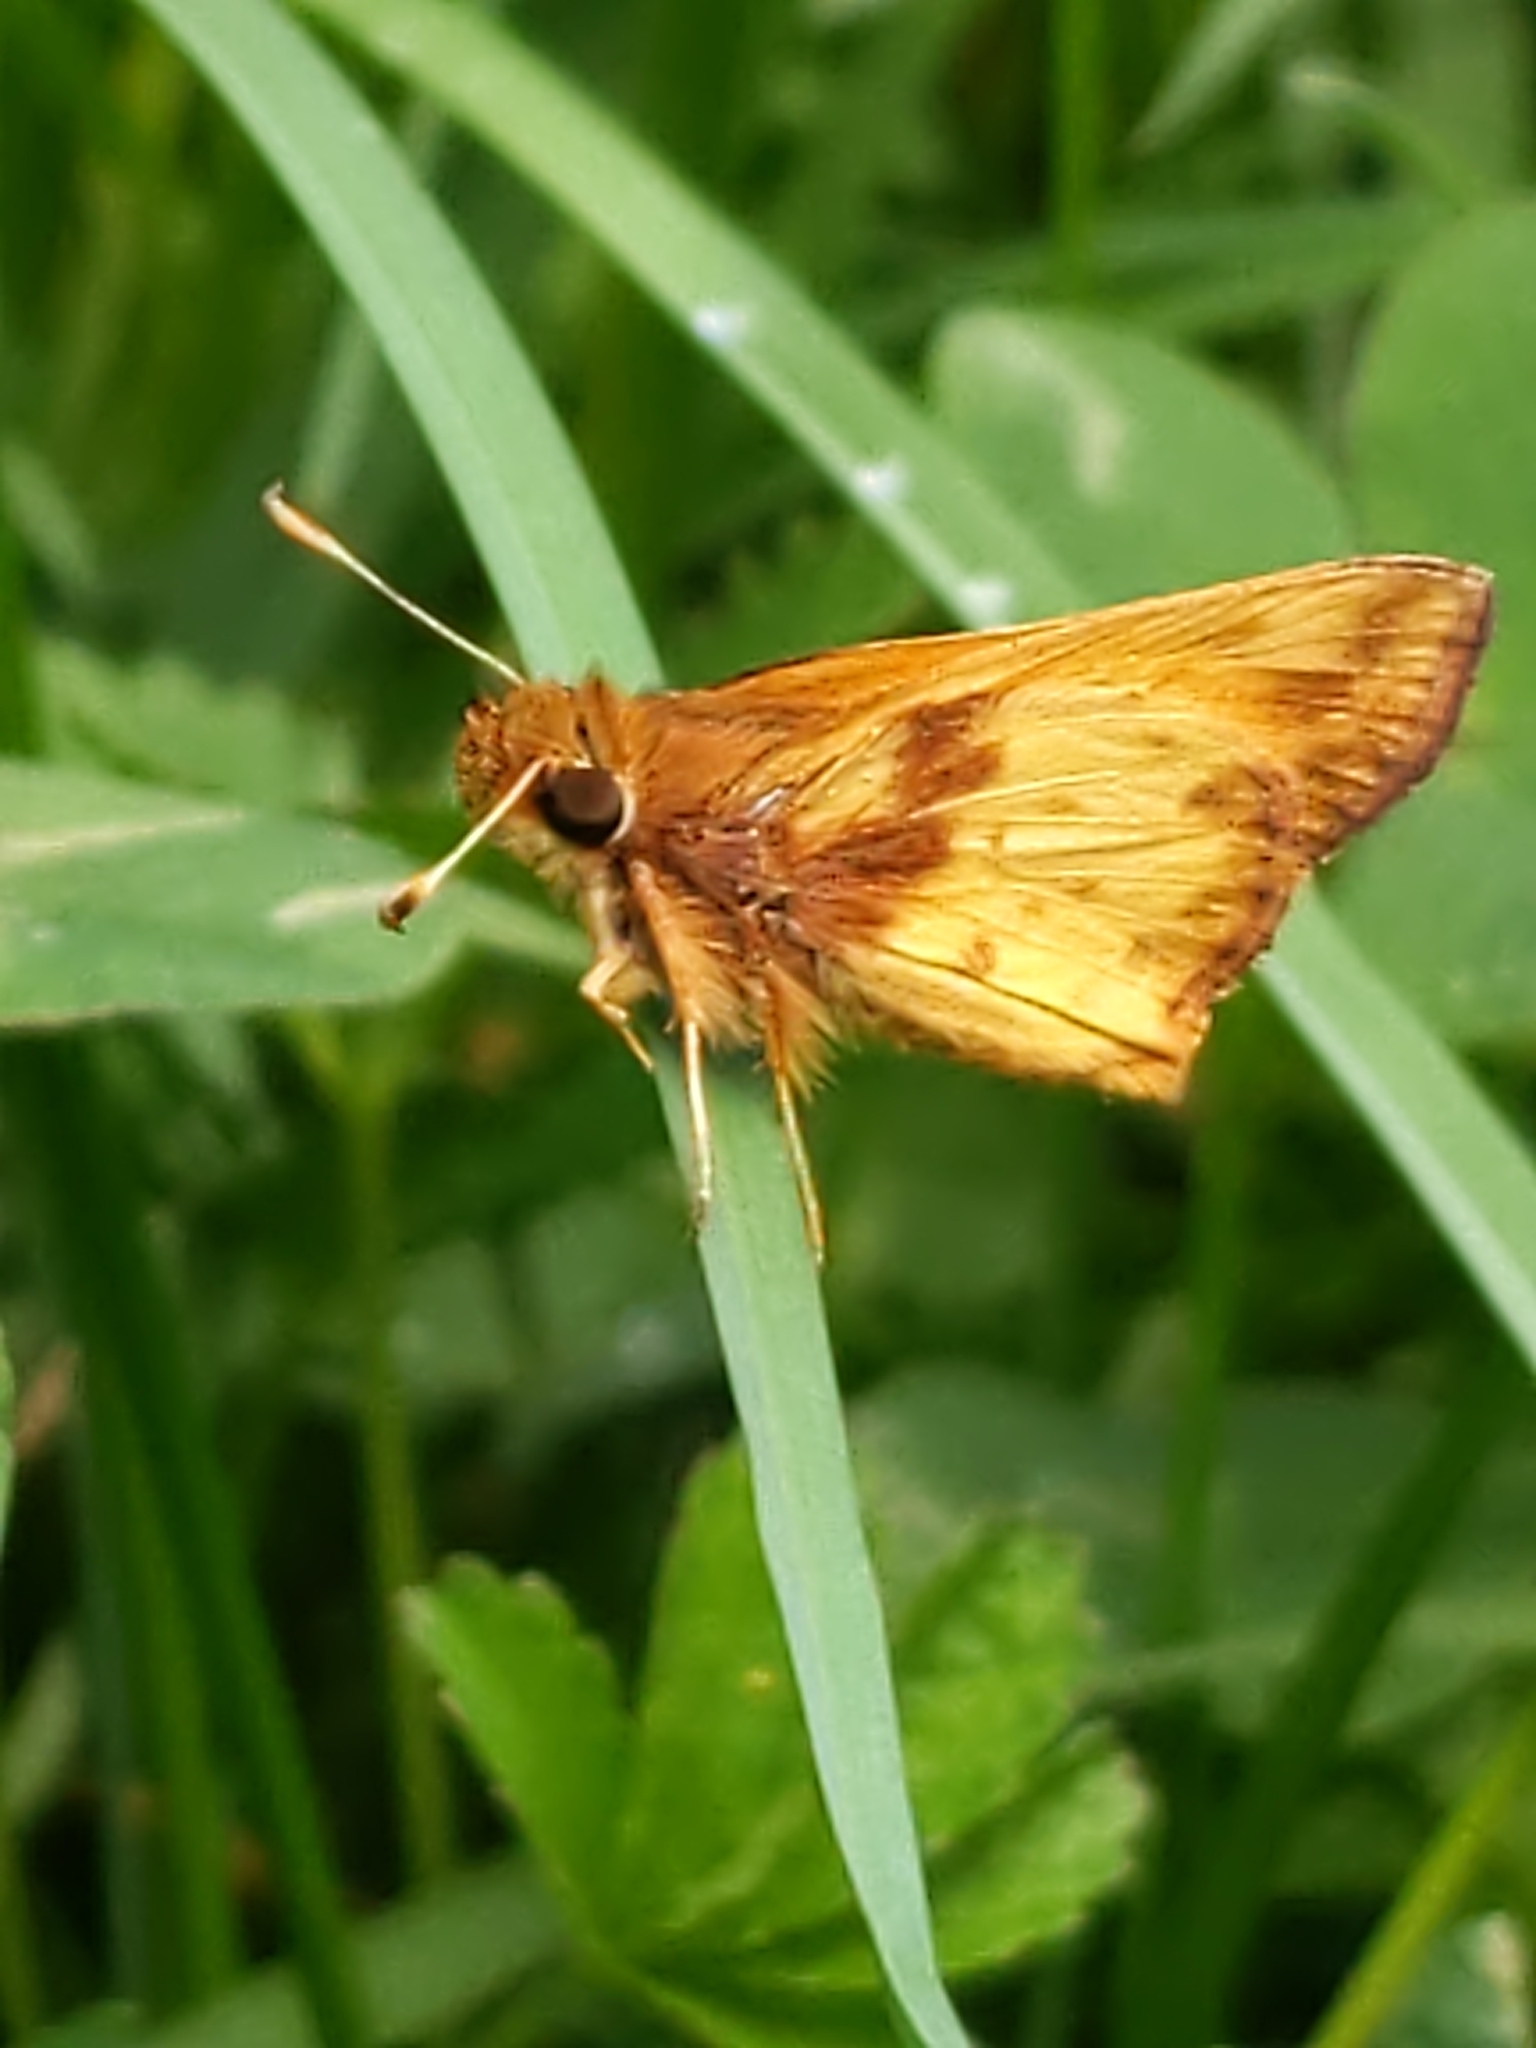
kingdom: Animalia
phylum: Arthropoda
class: Insecta
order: Lepidoptera
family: Hesperiidae
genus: Lon
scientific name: Lon zabulon
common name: Zabulon skipper
